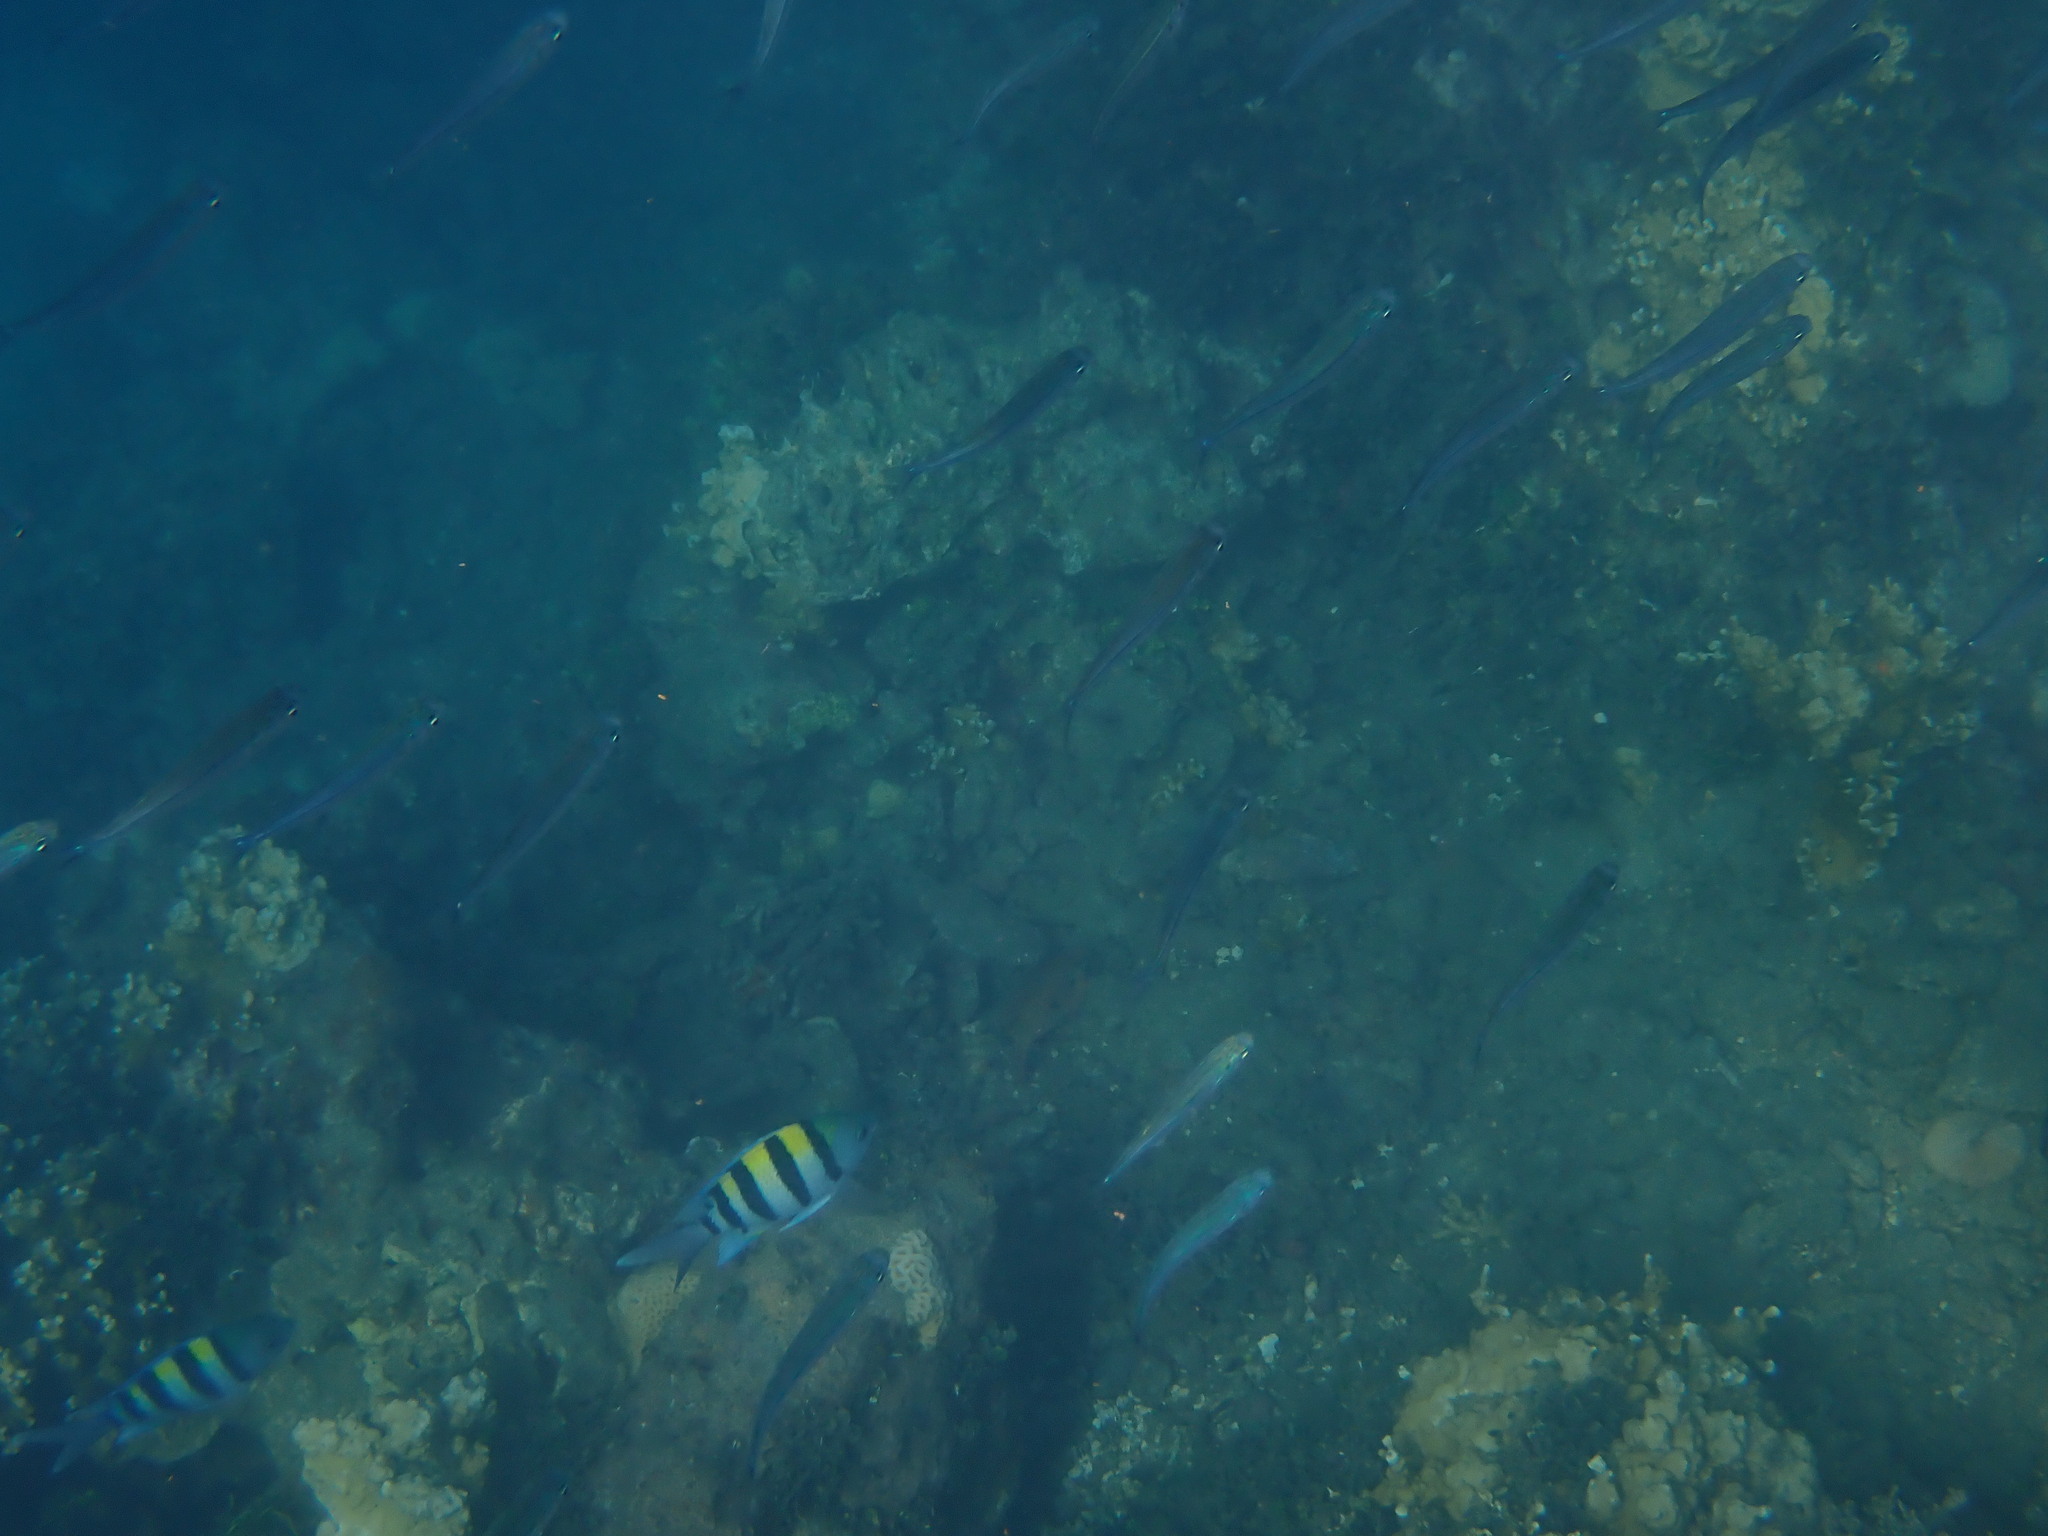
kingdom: Animalia
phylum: Chordata
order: Perciformes
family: Pomacentridae
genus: Abudefduf
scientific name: Abudefduf vaigiensis
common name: Indo-pacific sergeant
